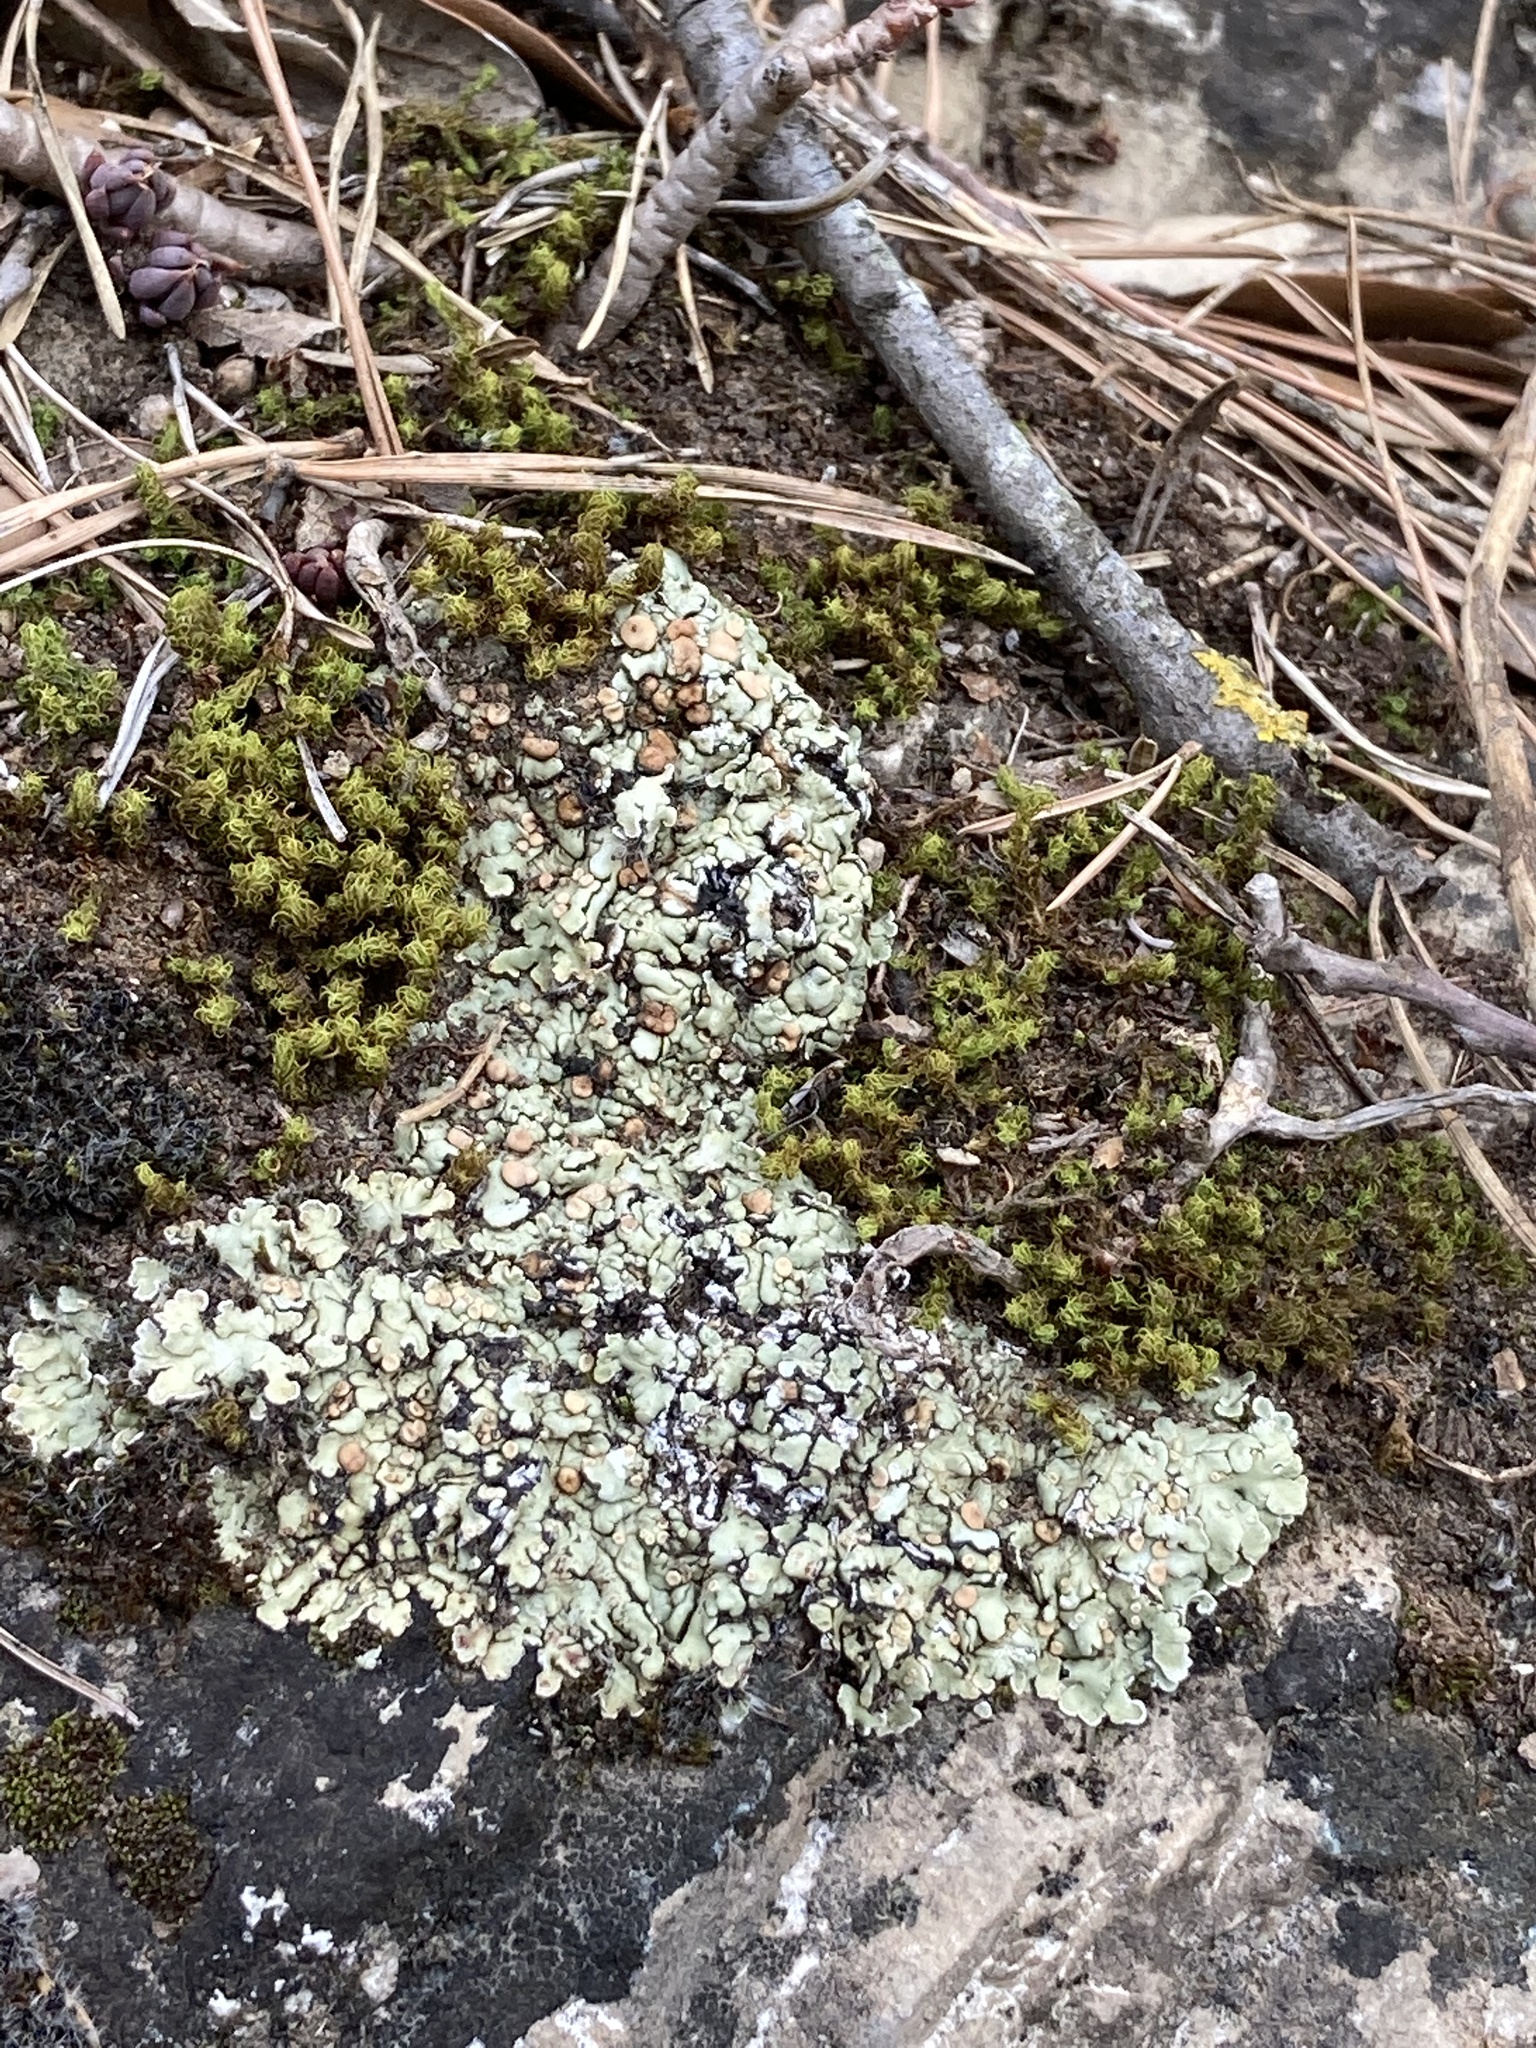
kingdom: Fungi
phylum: Ascomycota
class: Lecanoromycetes
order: Lecanorales
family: Stereocaulaceae
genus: Squamarina
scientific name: Squamarina cartilaginea
